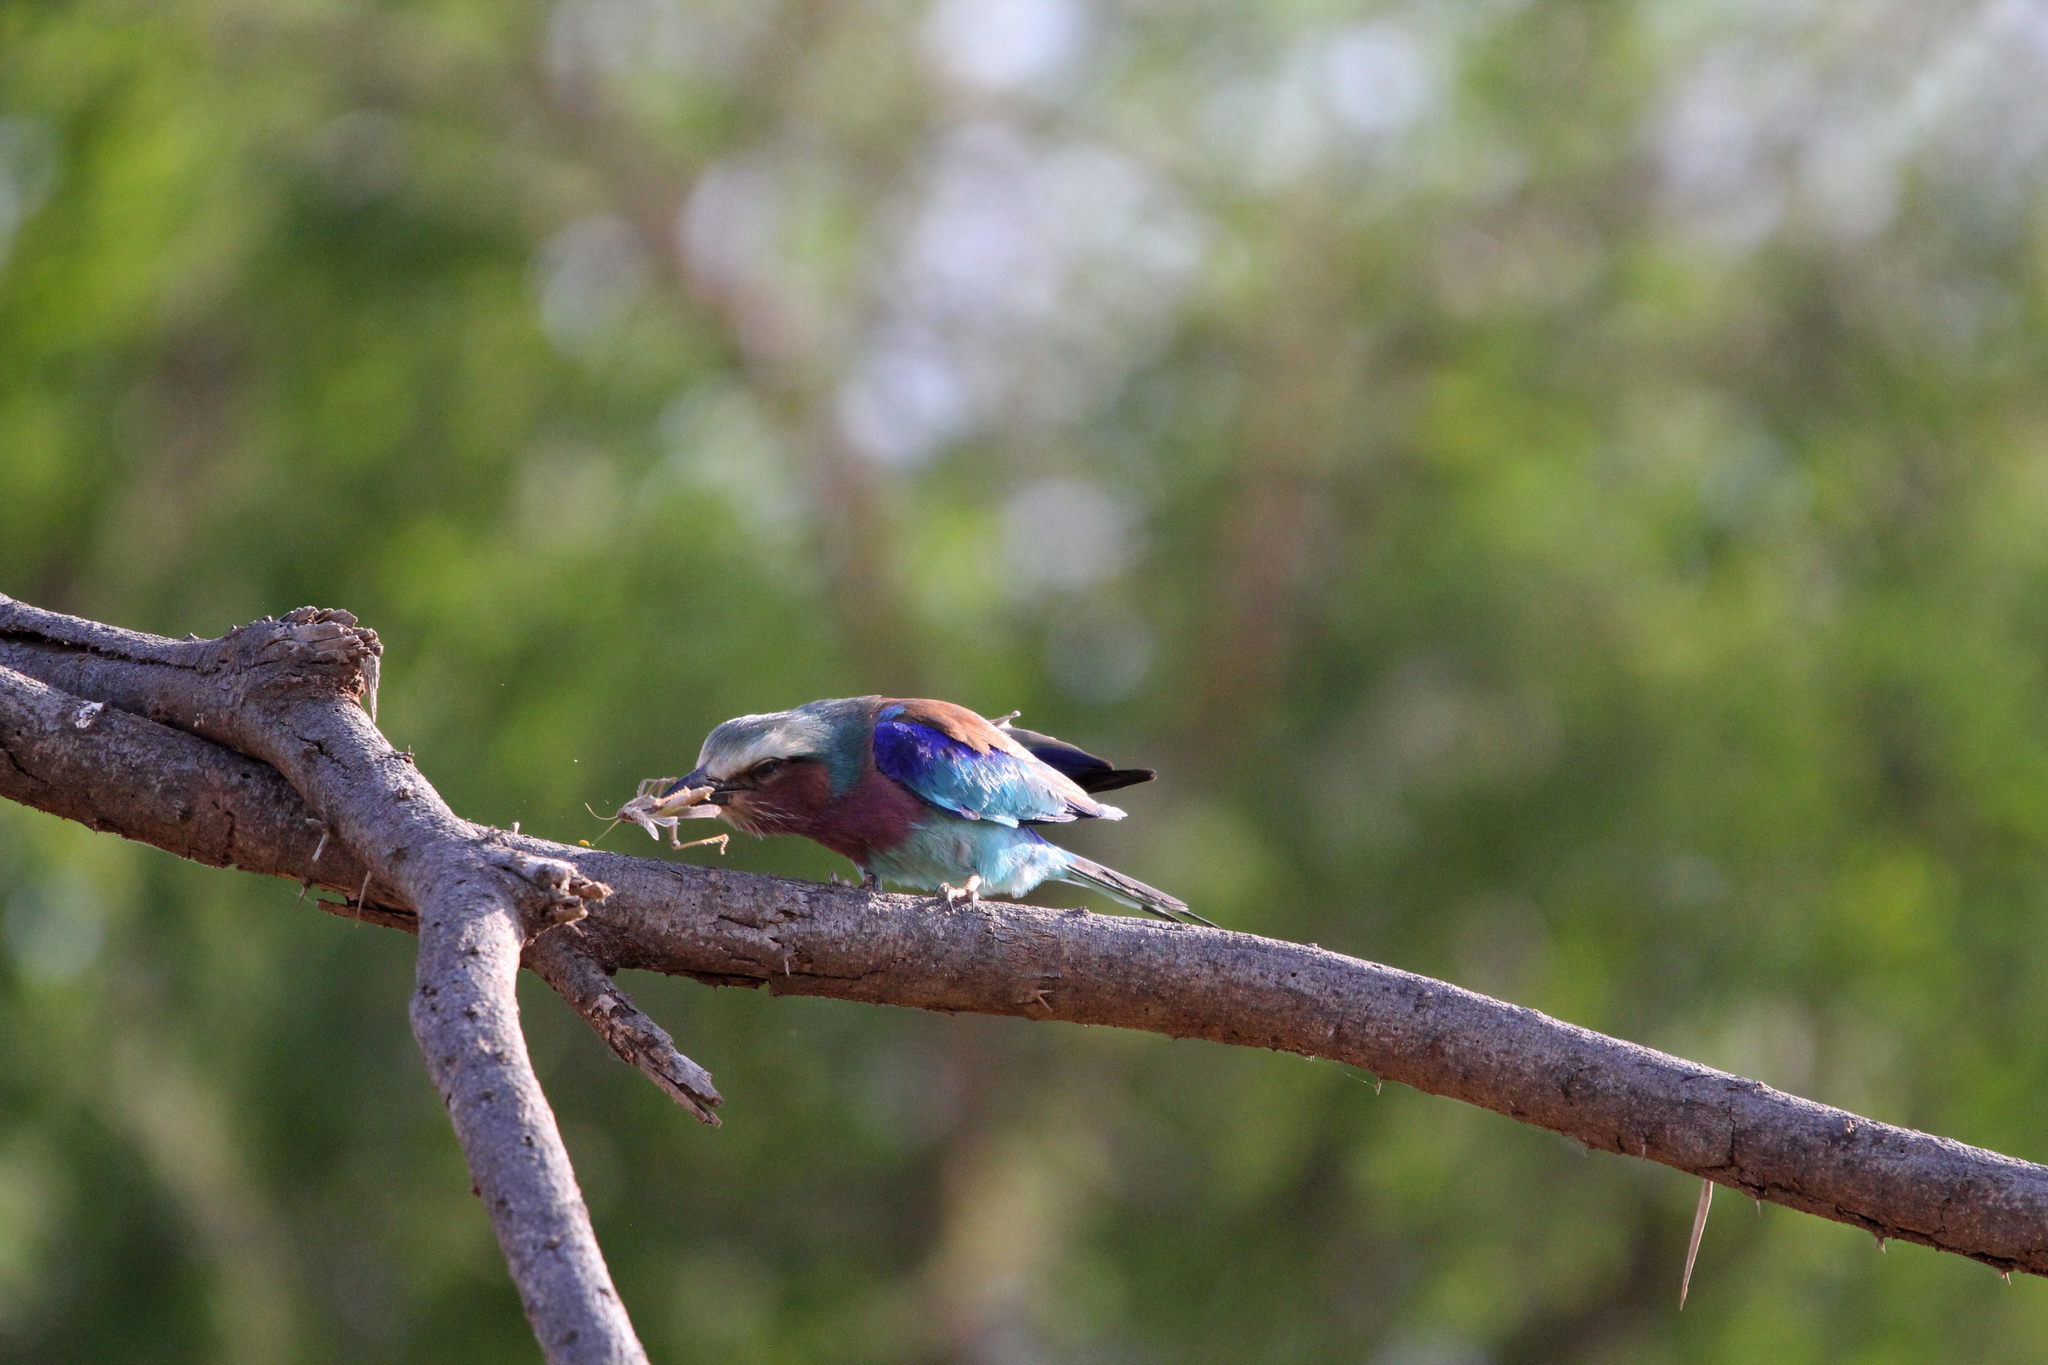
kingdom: Animalia
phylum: Chordata
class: Aves
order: Coraciiformes
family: Coraciidae
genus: Coracias
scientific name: Coracias caudatus
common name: Lilac-breasted roller
